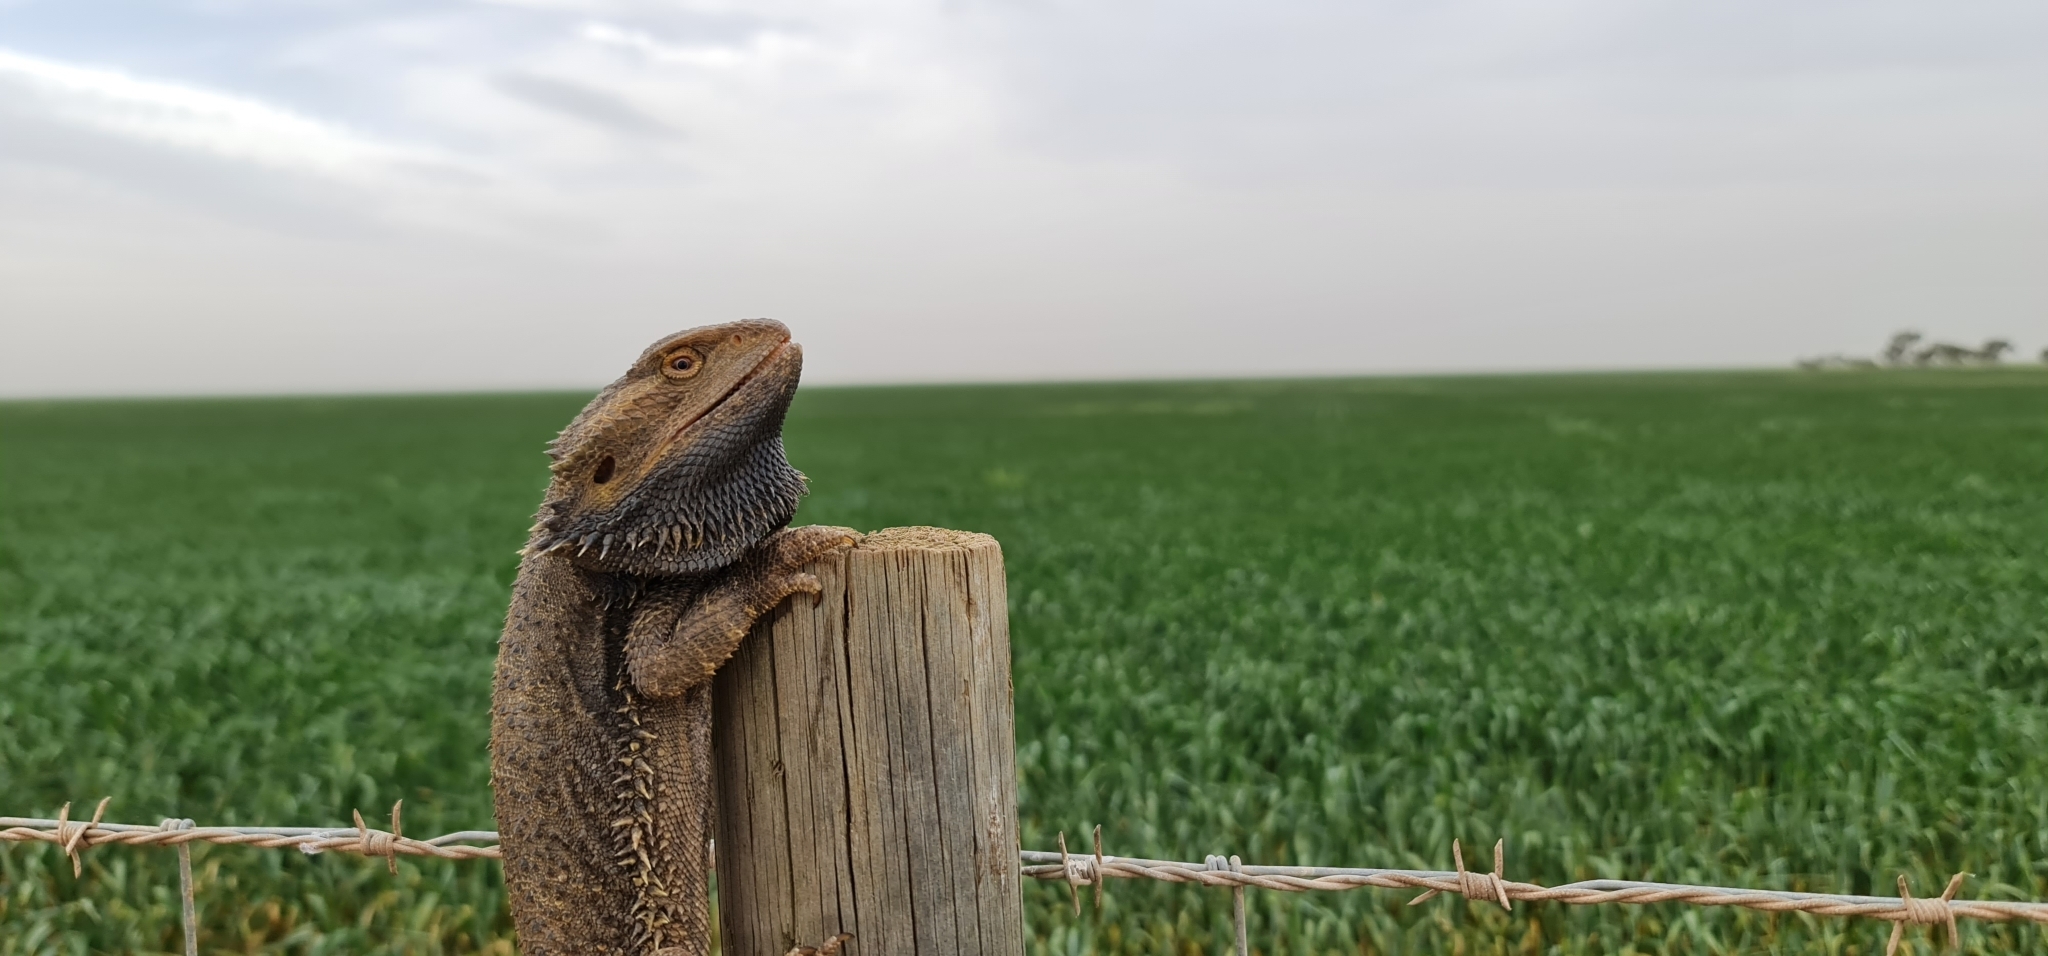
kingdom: Animalia
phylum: Chordata
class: Squamata
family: Agamidae
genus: Pogona
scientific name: Pogona vitticeps
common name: Central bearded dragon
